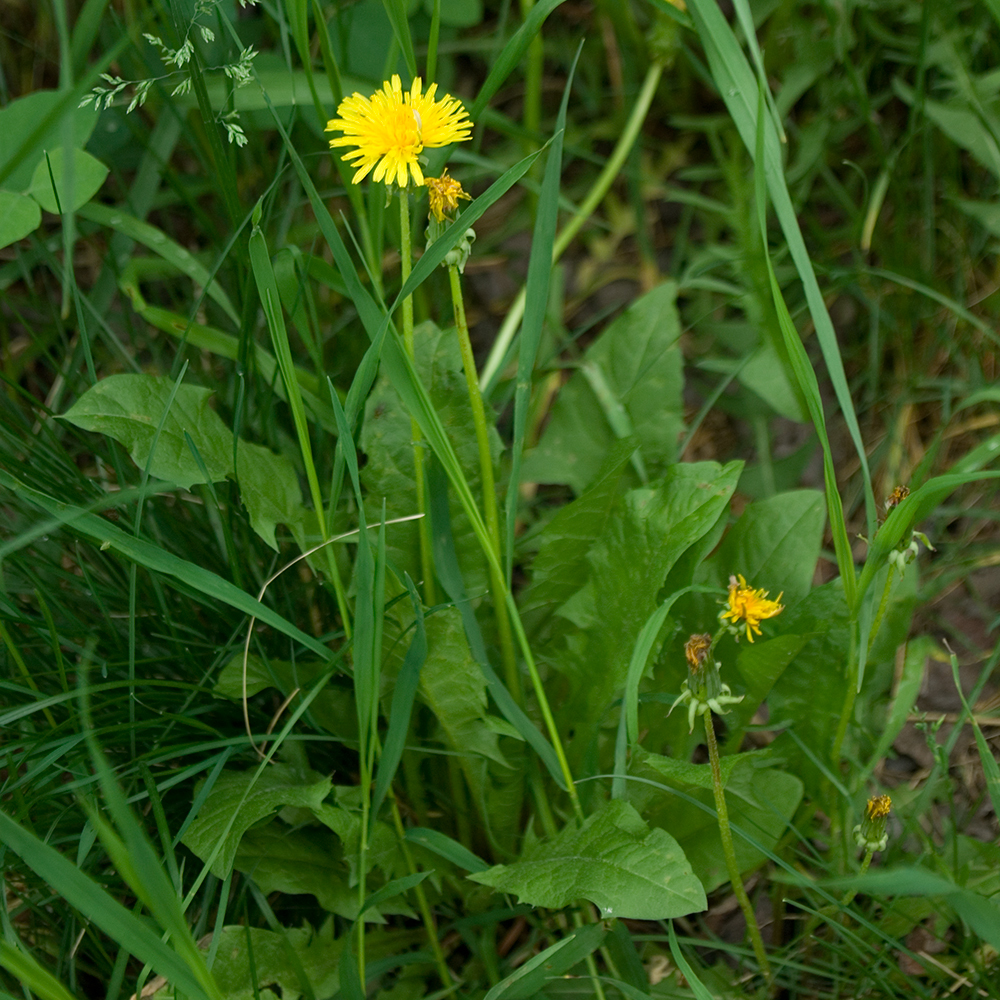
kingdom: Plantae
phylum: Tracheophyta
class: Magnoliopsida
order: Asterales
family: Asteraceae
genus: Taraxacum
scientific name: Taraxacum officinale
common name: Common dandelion
